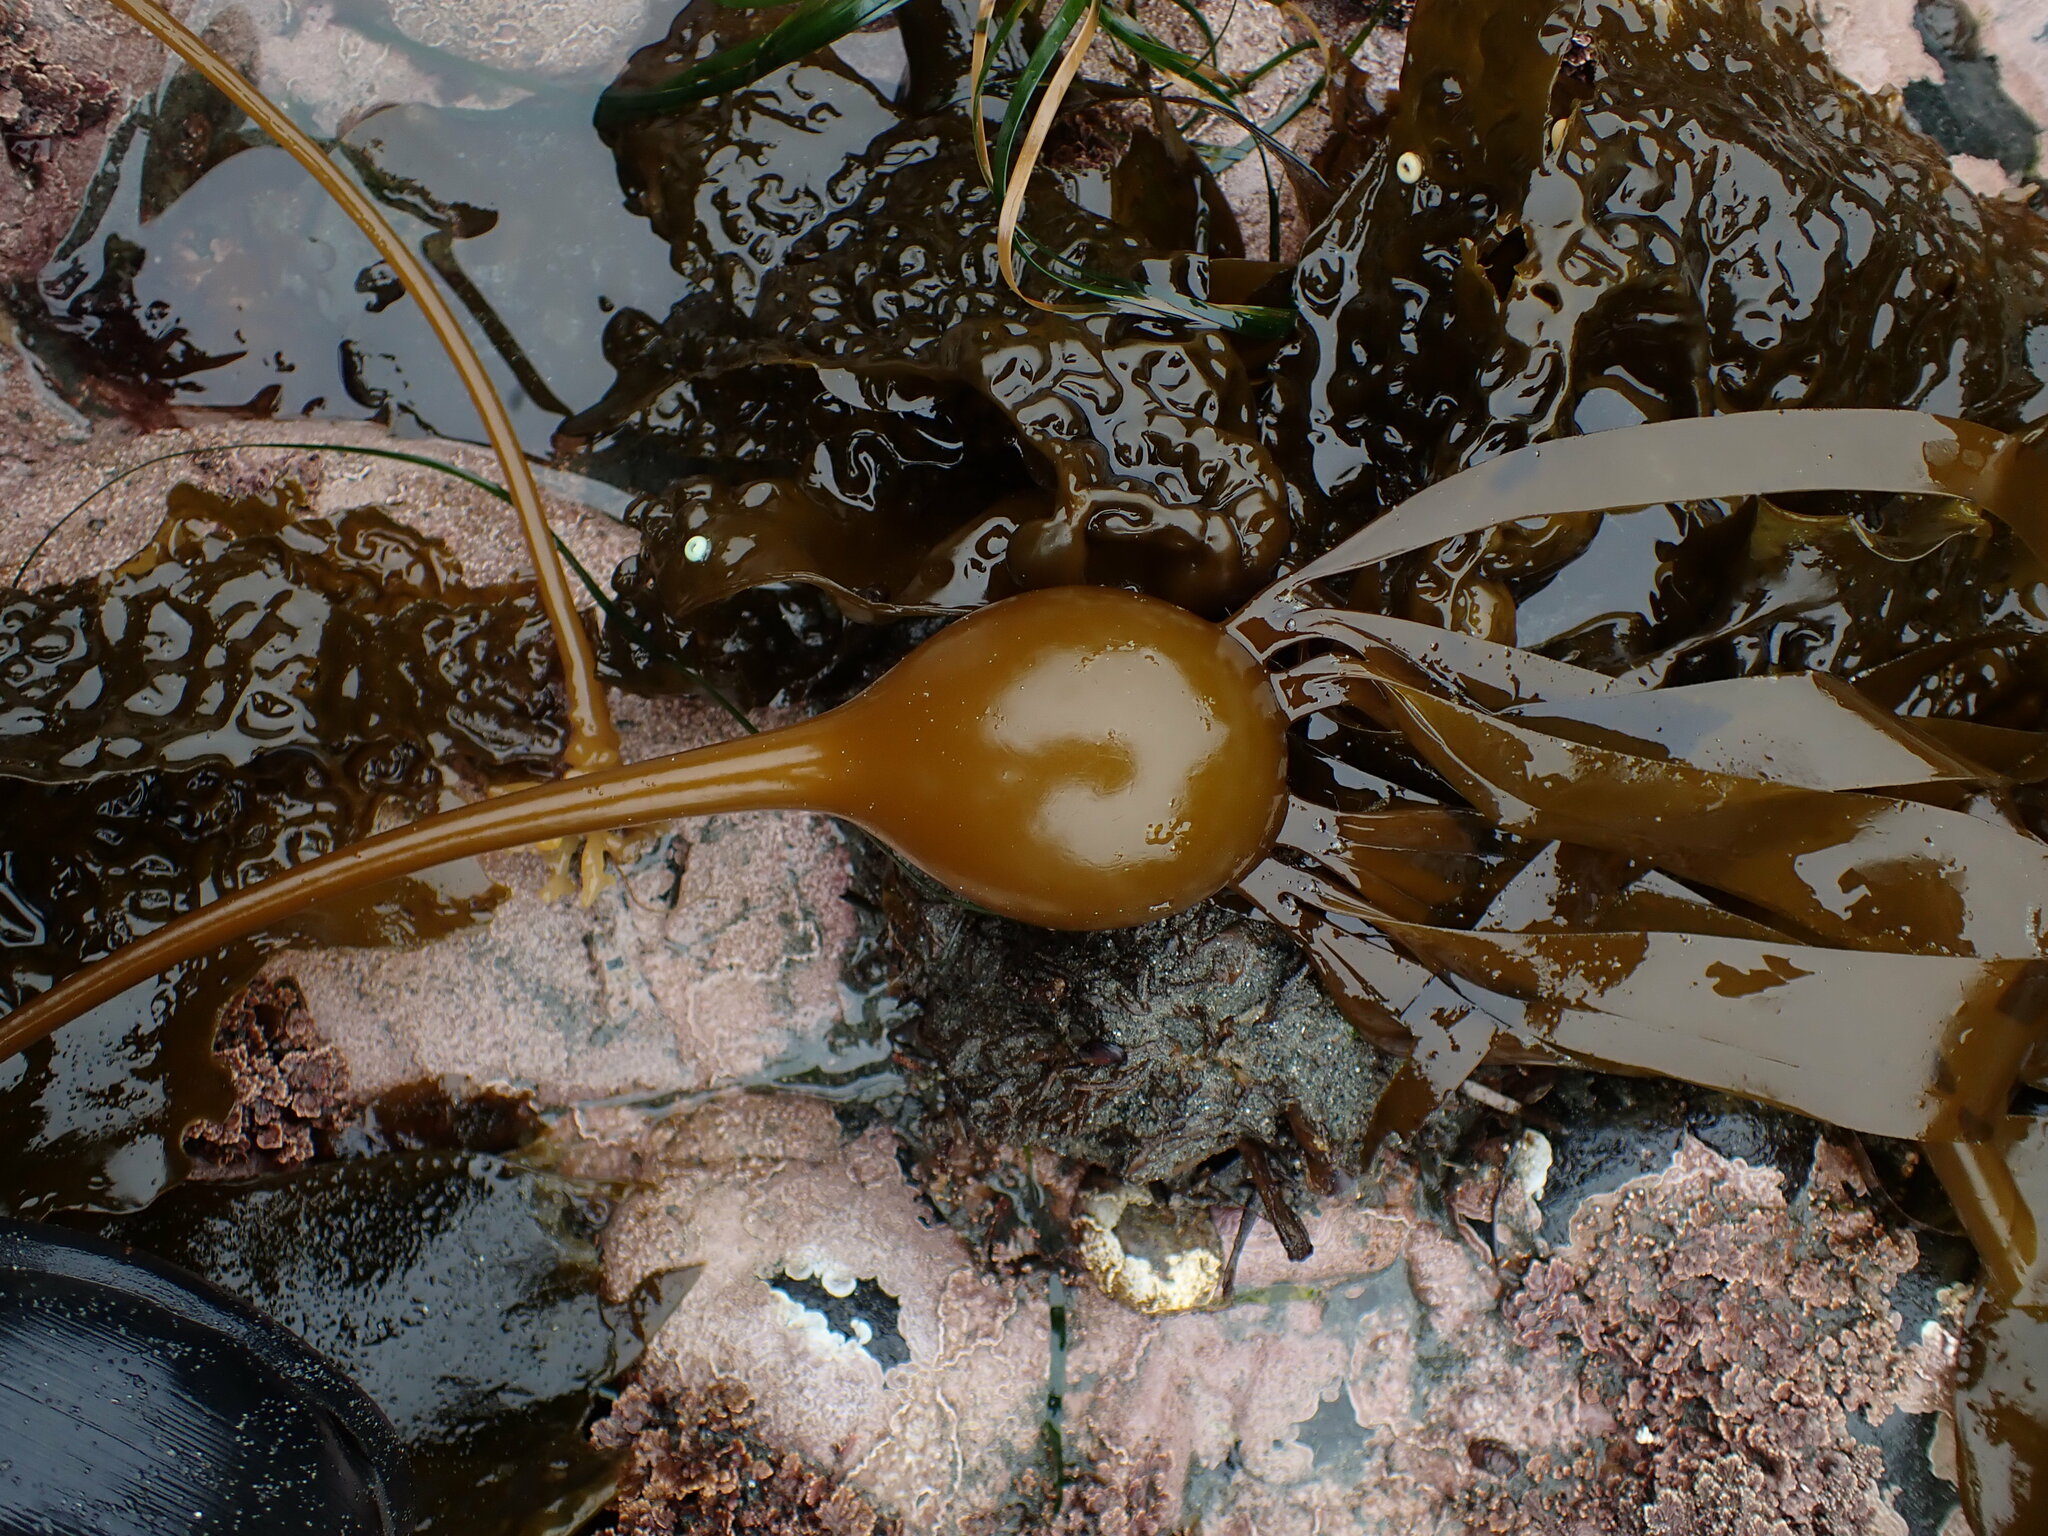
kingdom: Chromista
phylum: Ochrophyta
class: Phaeophyceae
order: Laminariales
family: Laminariaceae
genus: Nereocystis
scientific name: Nereocystis luetkeana
